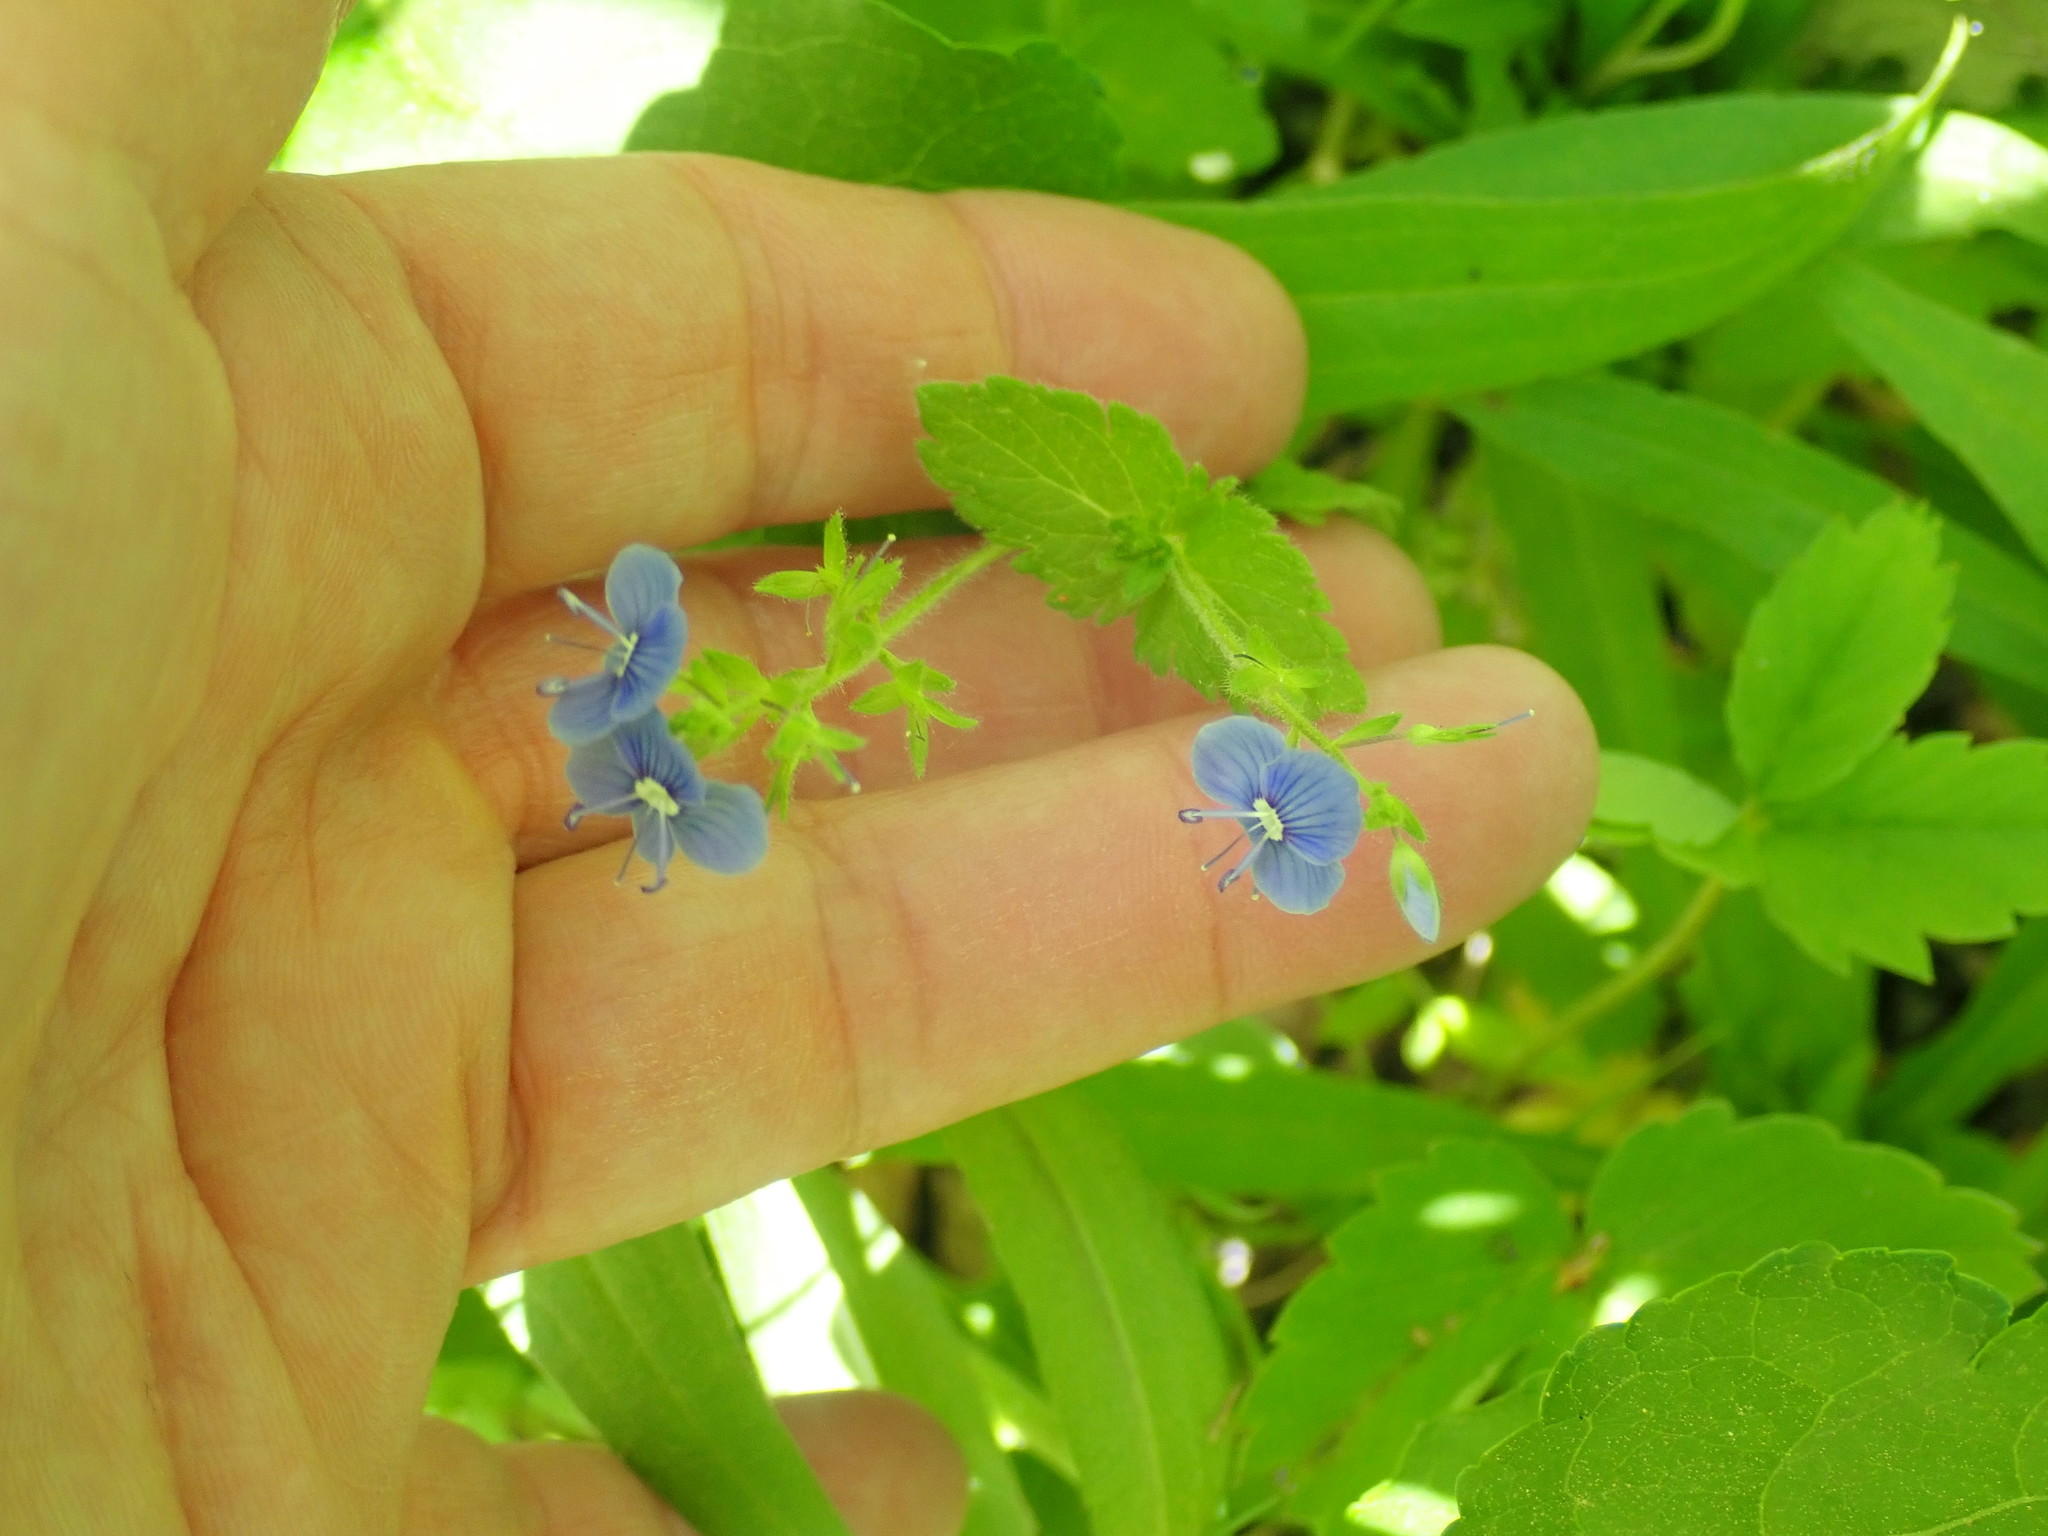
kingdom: Plantae
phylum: Tracheophyta
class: Magnoliopsida
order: Lamiales
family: Plantaginaceae
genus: Veronica
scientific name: Veronica chamaedrys
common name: Germander speedwell
